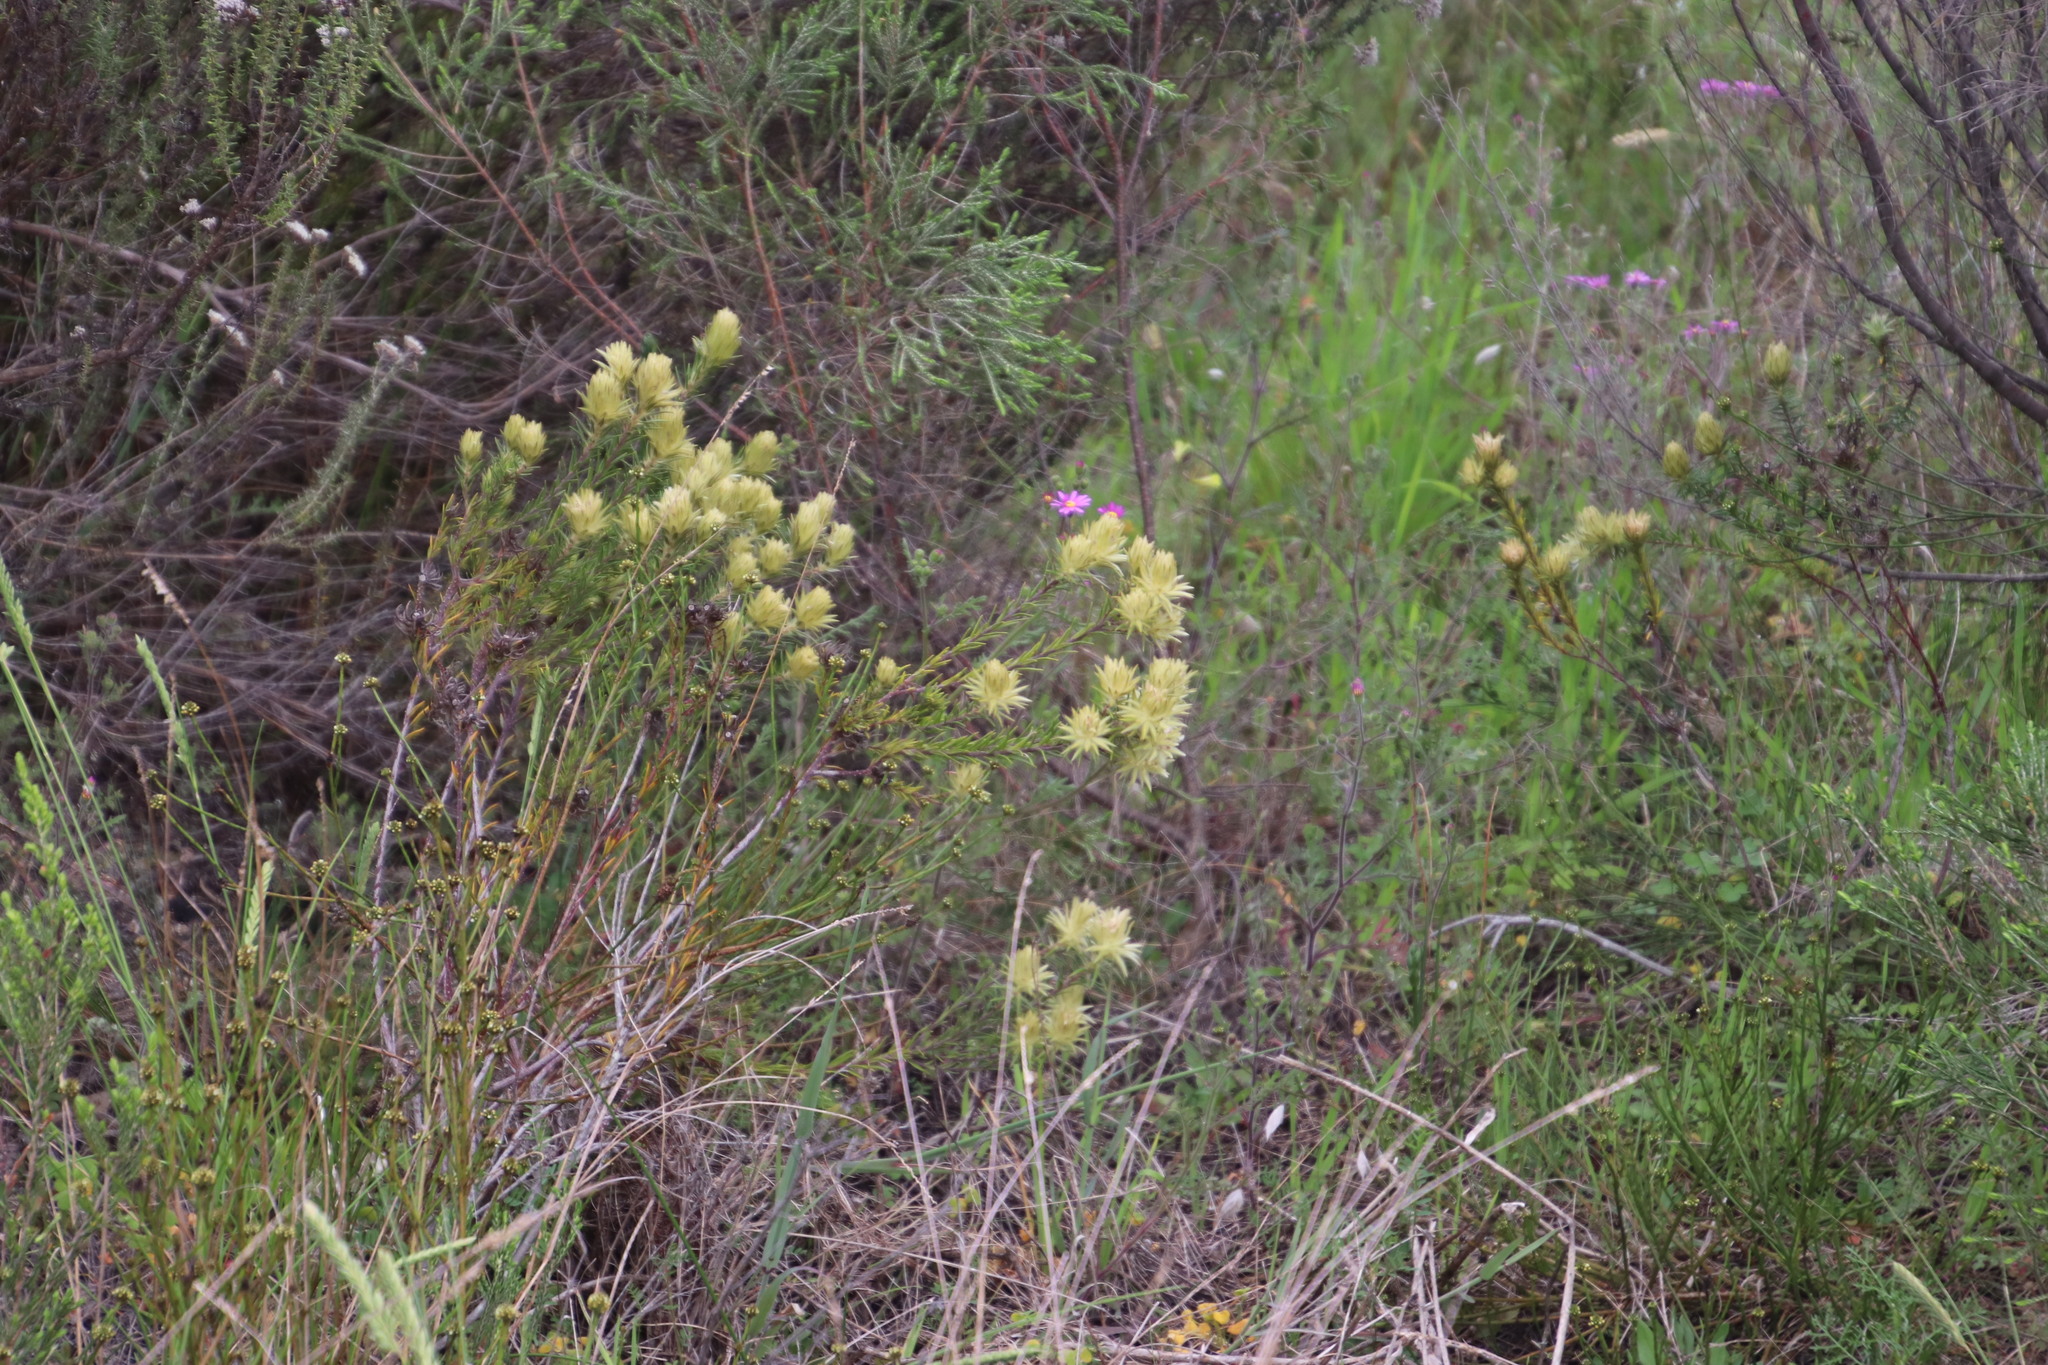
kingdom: Plantae
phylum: Tracheophyta
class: Magnoliopsida
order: Rosales
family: Rhamnaceae
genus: Phylica
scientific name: Phylica pubescens
